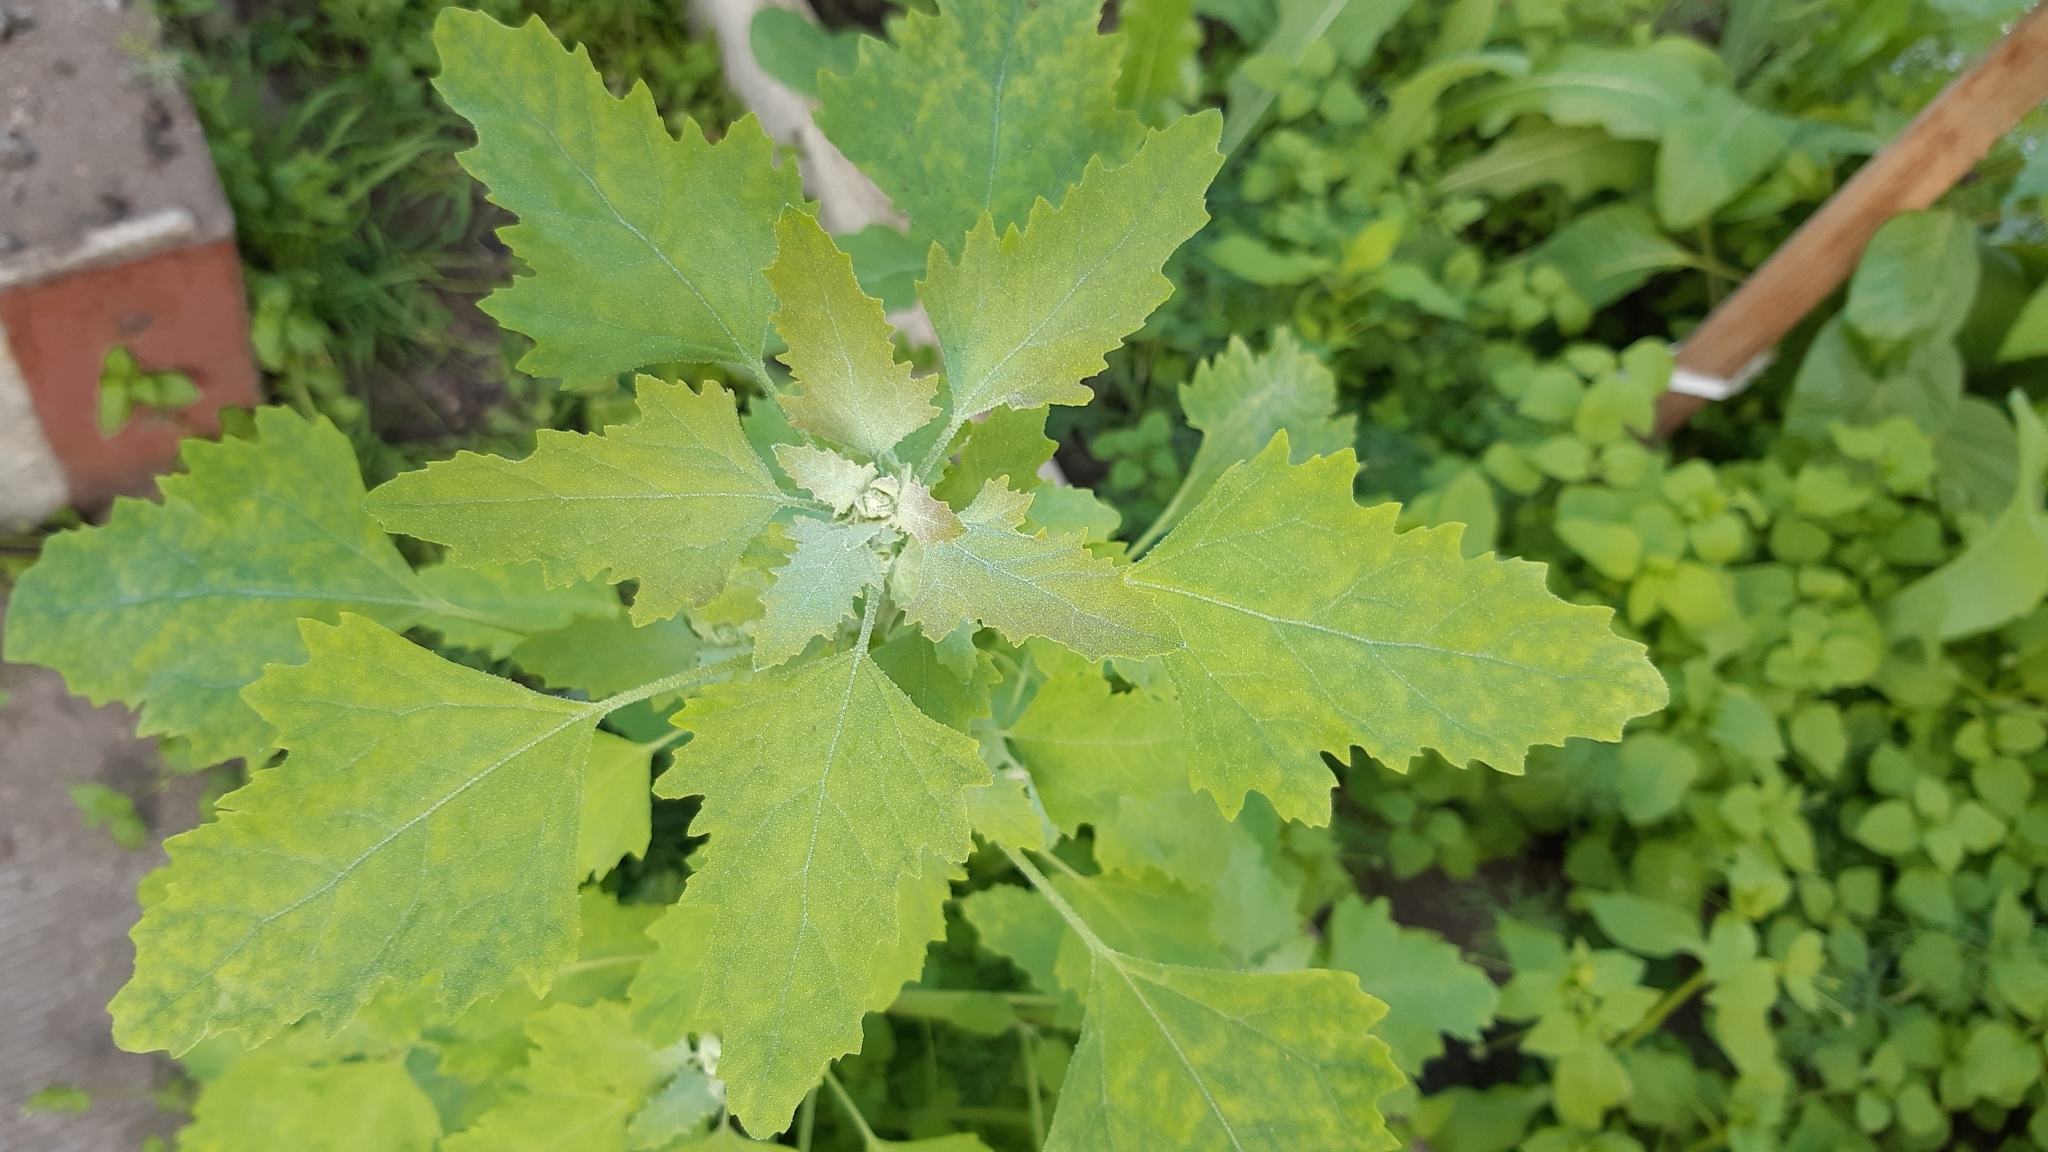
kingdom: Plantae
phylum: Tracheophyta
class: Magnoliopsida
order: Caryophyllales
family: Amaranthaceae
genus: Chenopodium
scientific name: Chenopodium album
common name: Fat-hen
